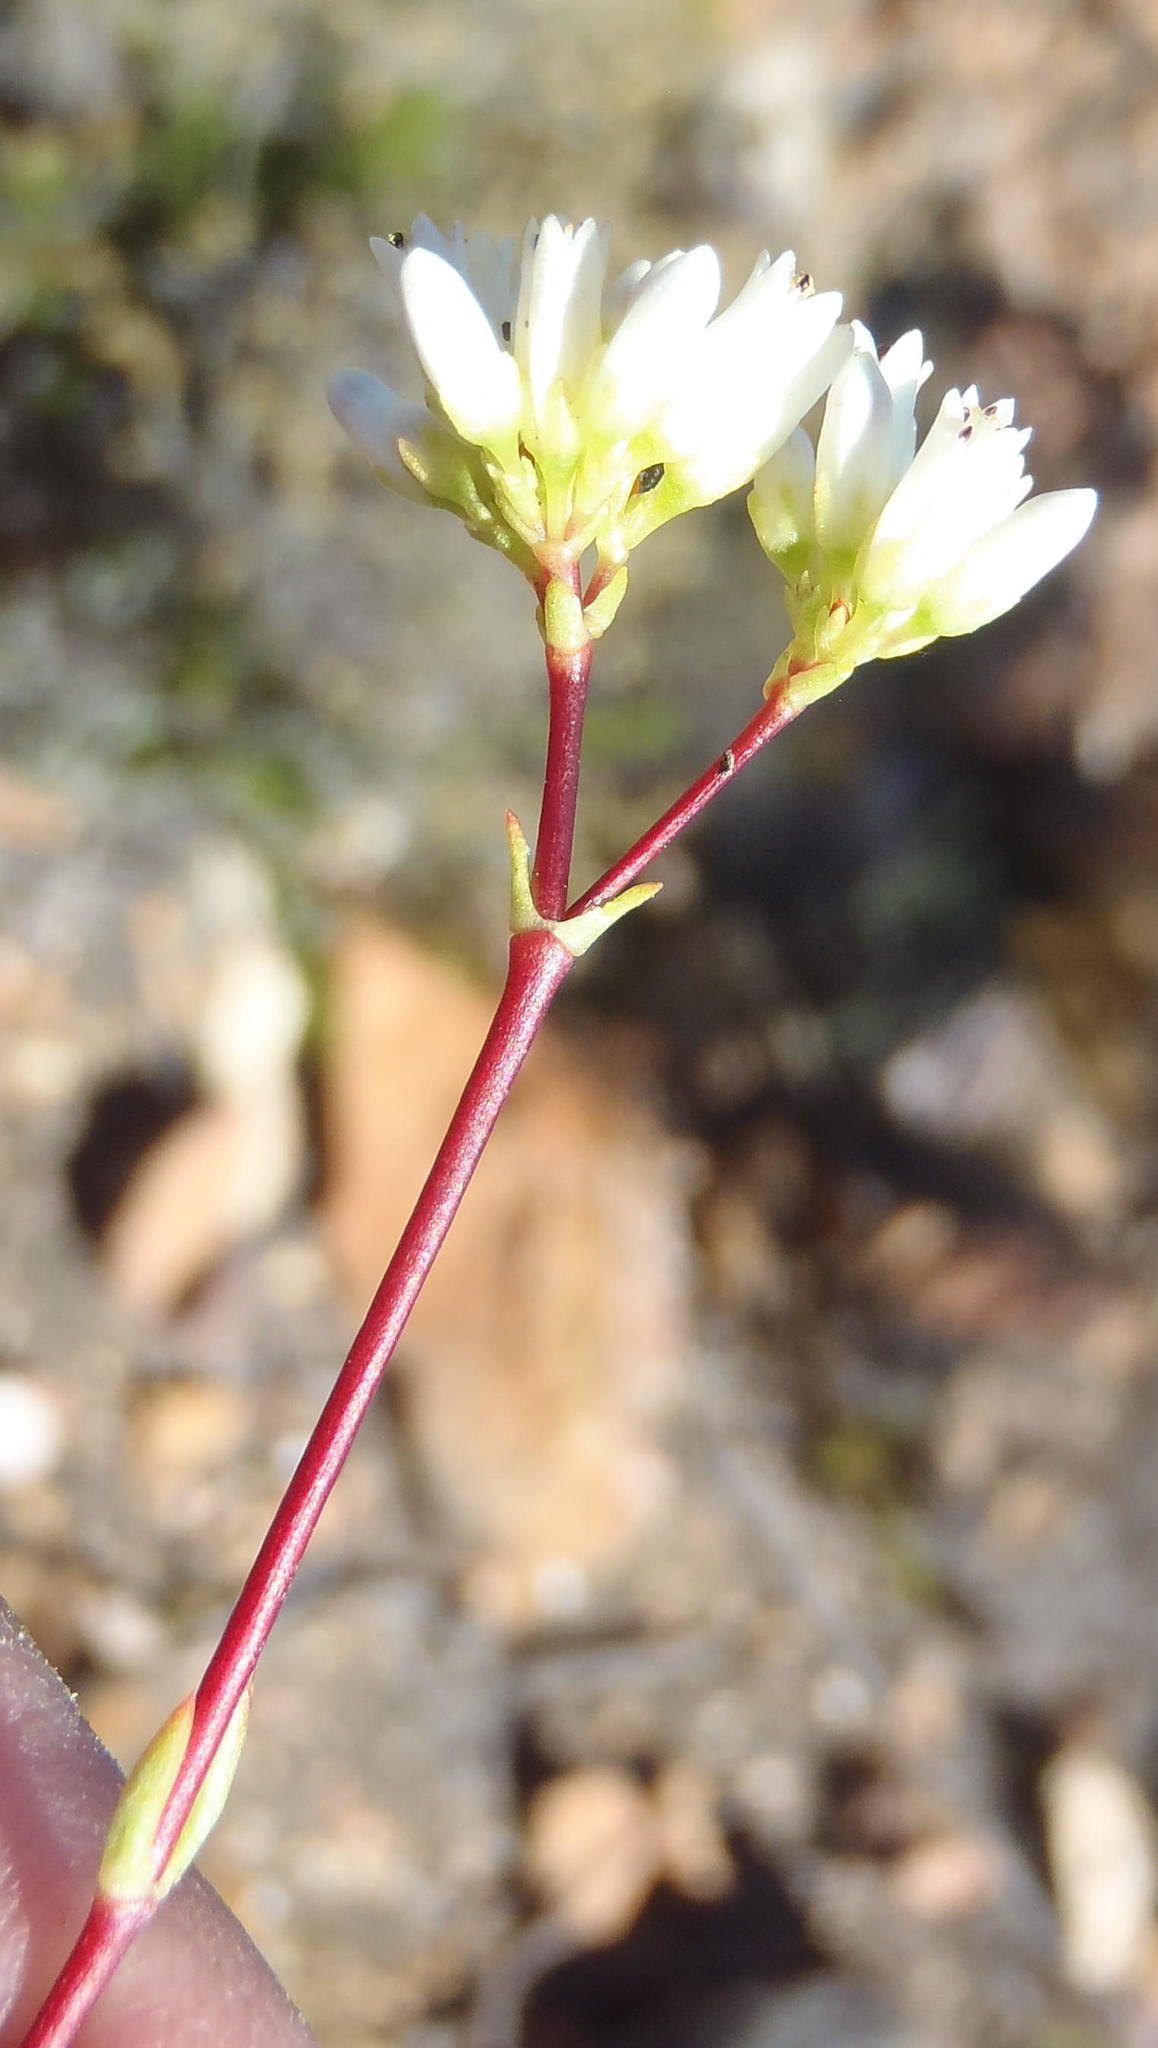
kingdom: Plantae
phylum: Tracheophyta
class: Magnoliopsida
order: Saxifragales
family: Crassulaceae
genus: Crassula
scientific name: Crassula biplanata
